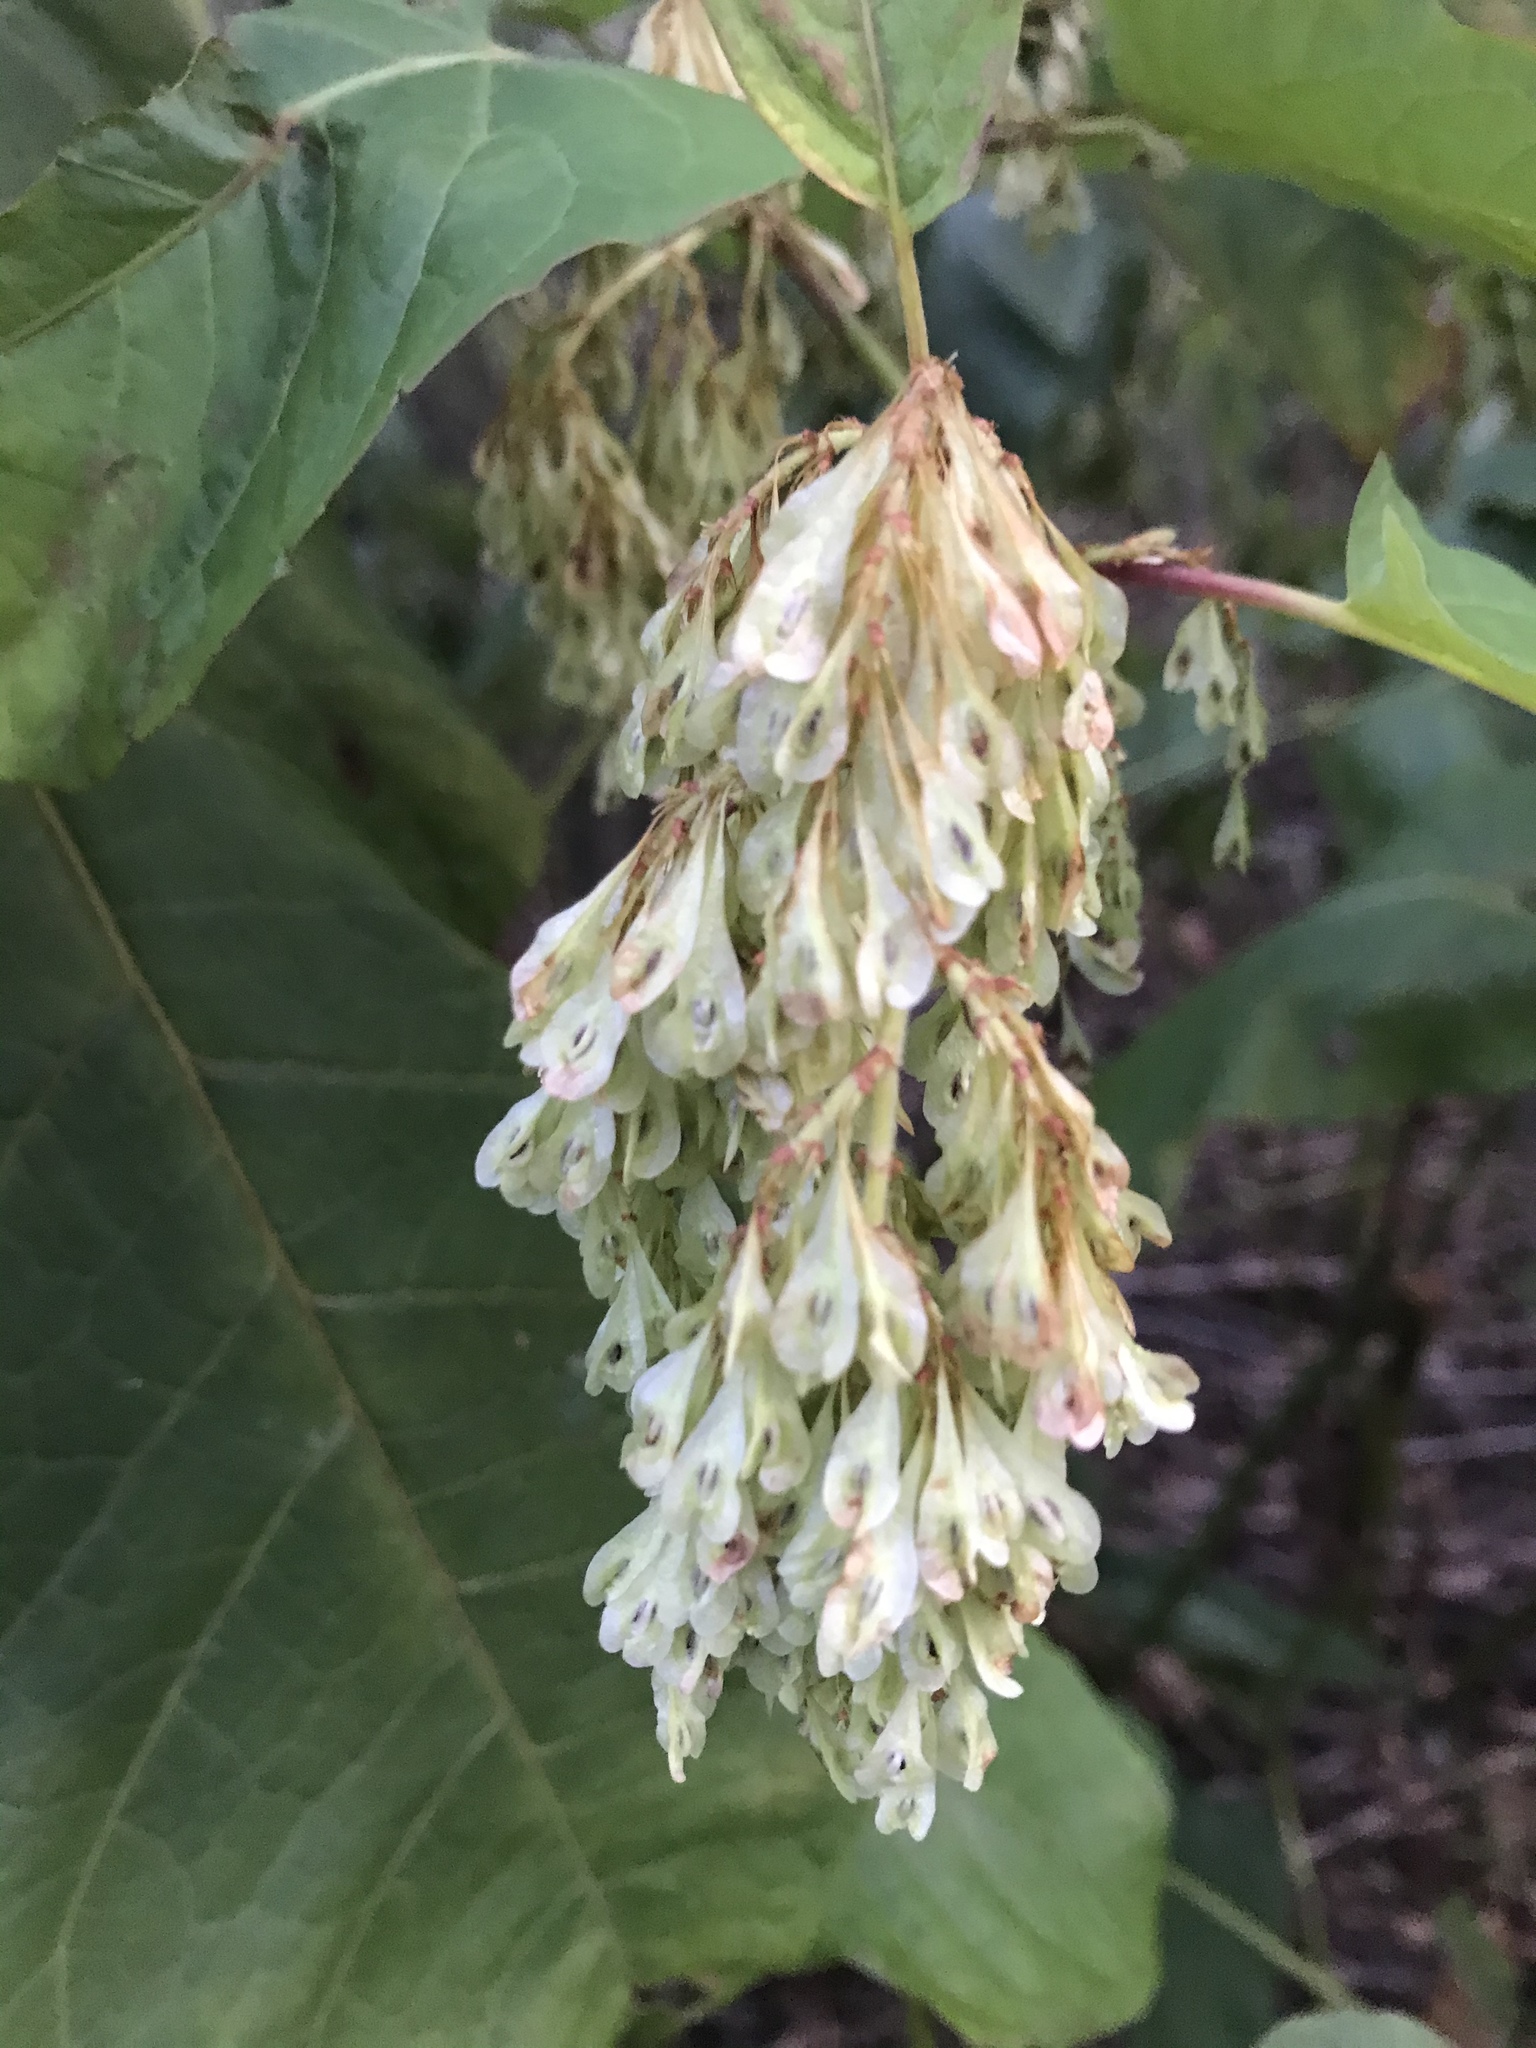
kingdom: Plantae
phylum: Tracheophyta
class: Magnoliopsida
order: Caryophyllales
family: Polygonaceae
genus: Reynoutria
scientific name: Reynoutria sachalinensis
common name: Giant knotweed
